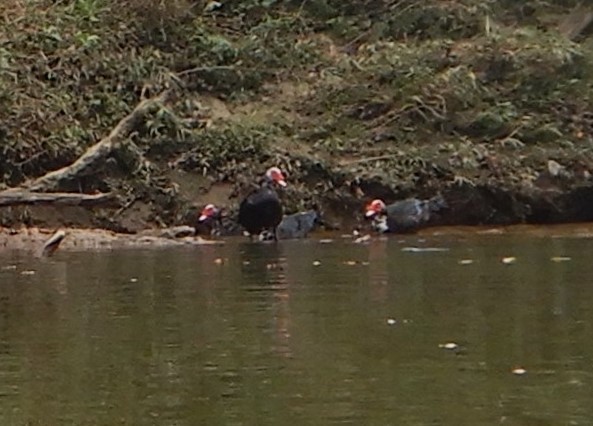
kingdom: Animalia
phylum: Chordata
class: Aves
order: Anseriformes
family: Anatidae
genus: Cairina
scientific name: Cairina moschata
